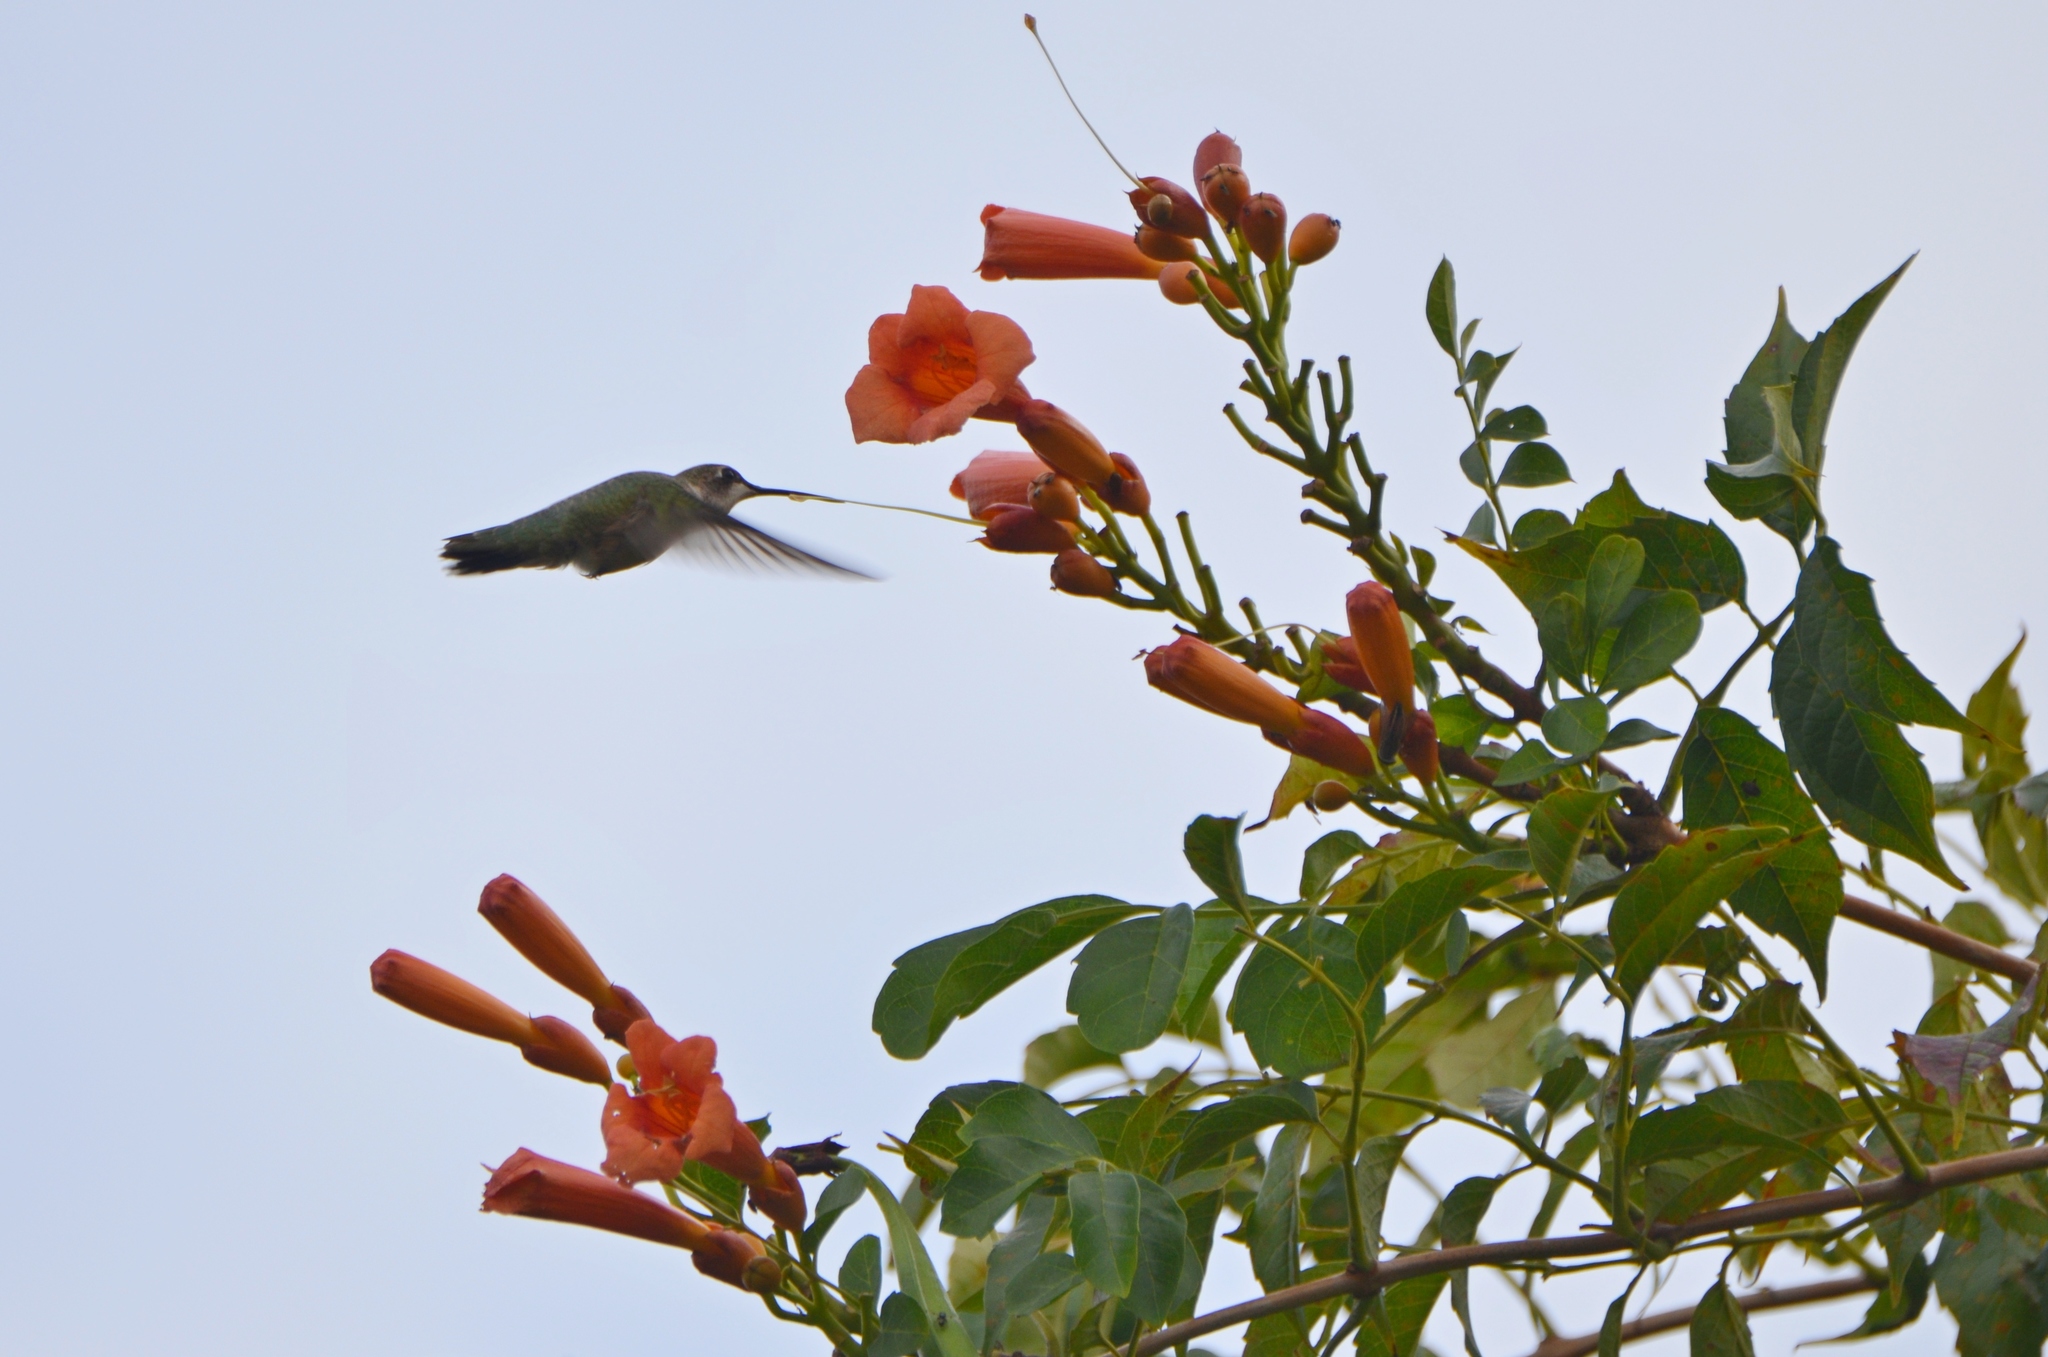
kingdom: Animalia
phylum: Chordata
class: Aves
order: Apodiformes
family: Trochilidae
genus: Archilochus
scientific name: Archilochus colubris
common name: Ruby-throated hummingbird
